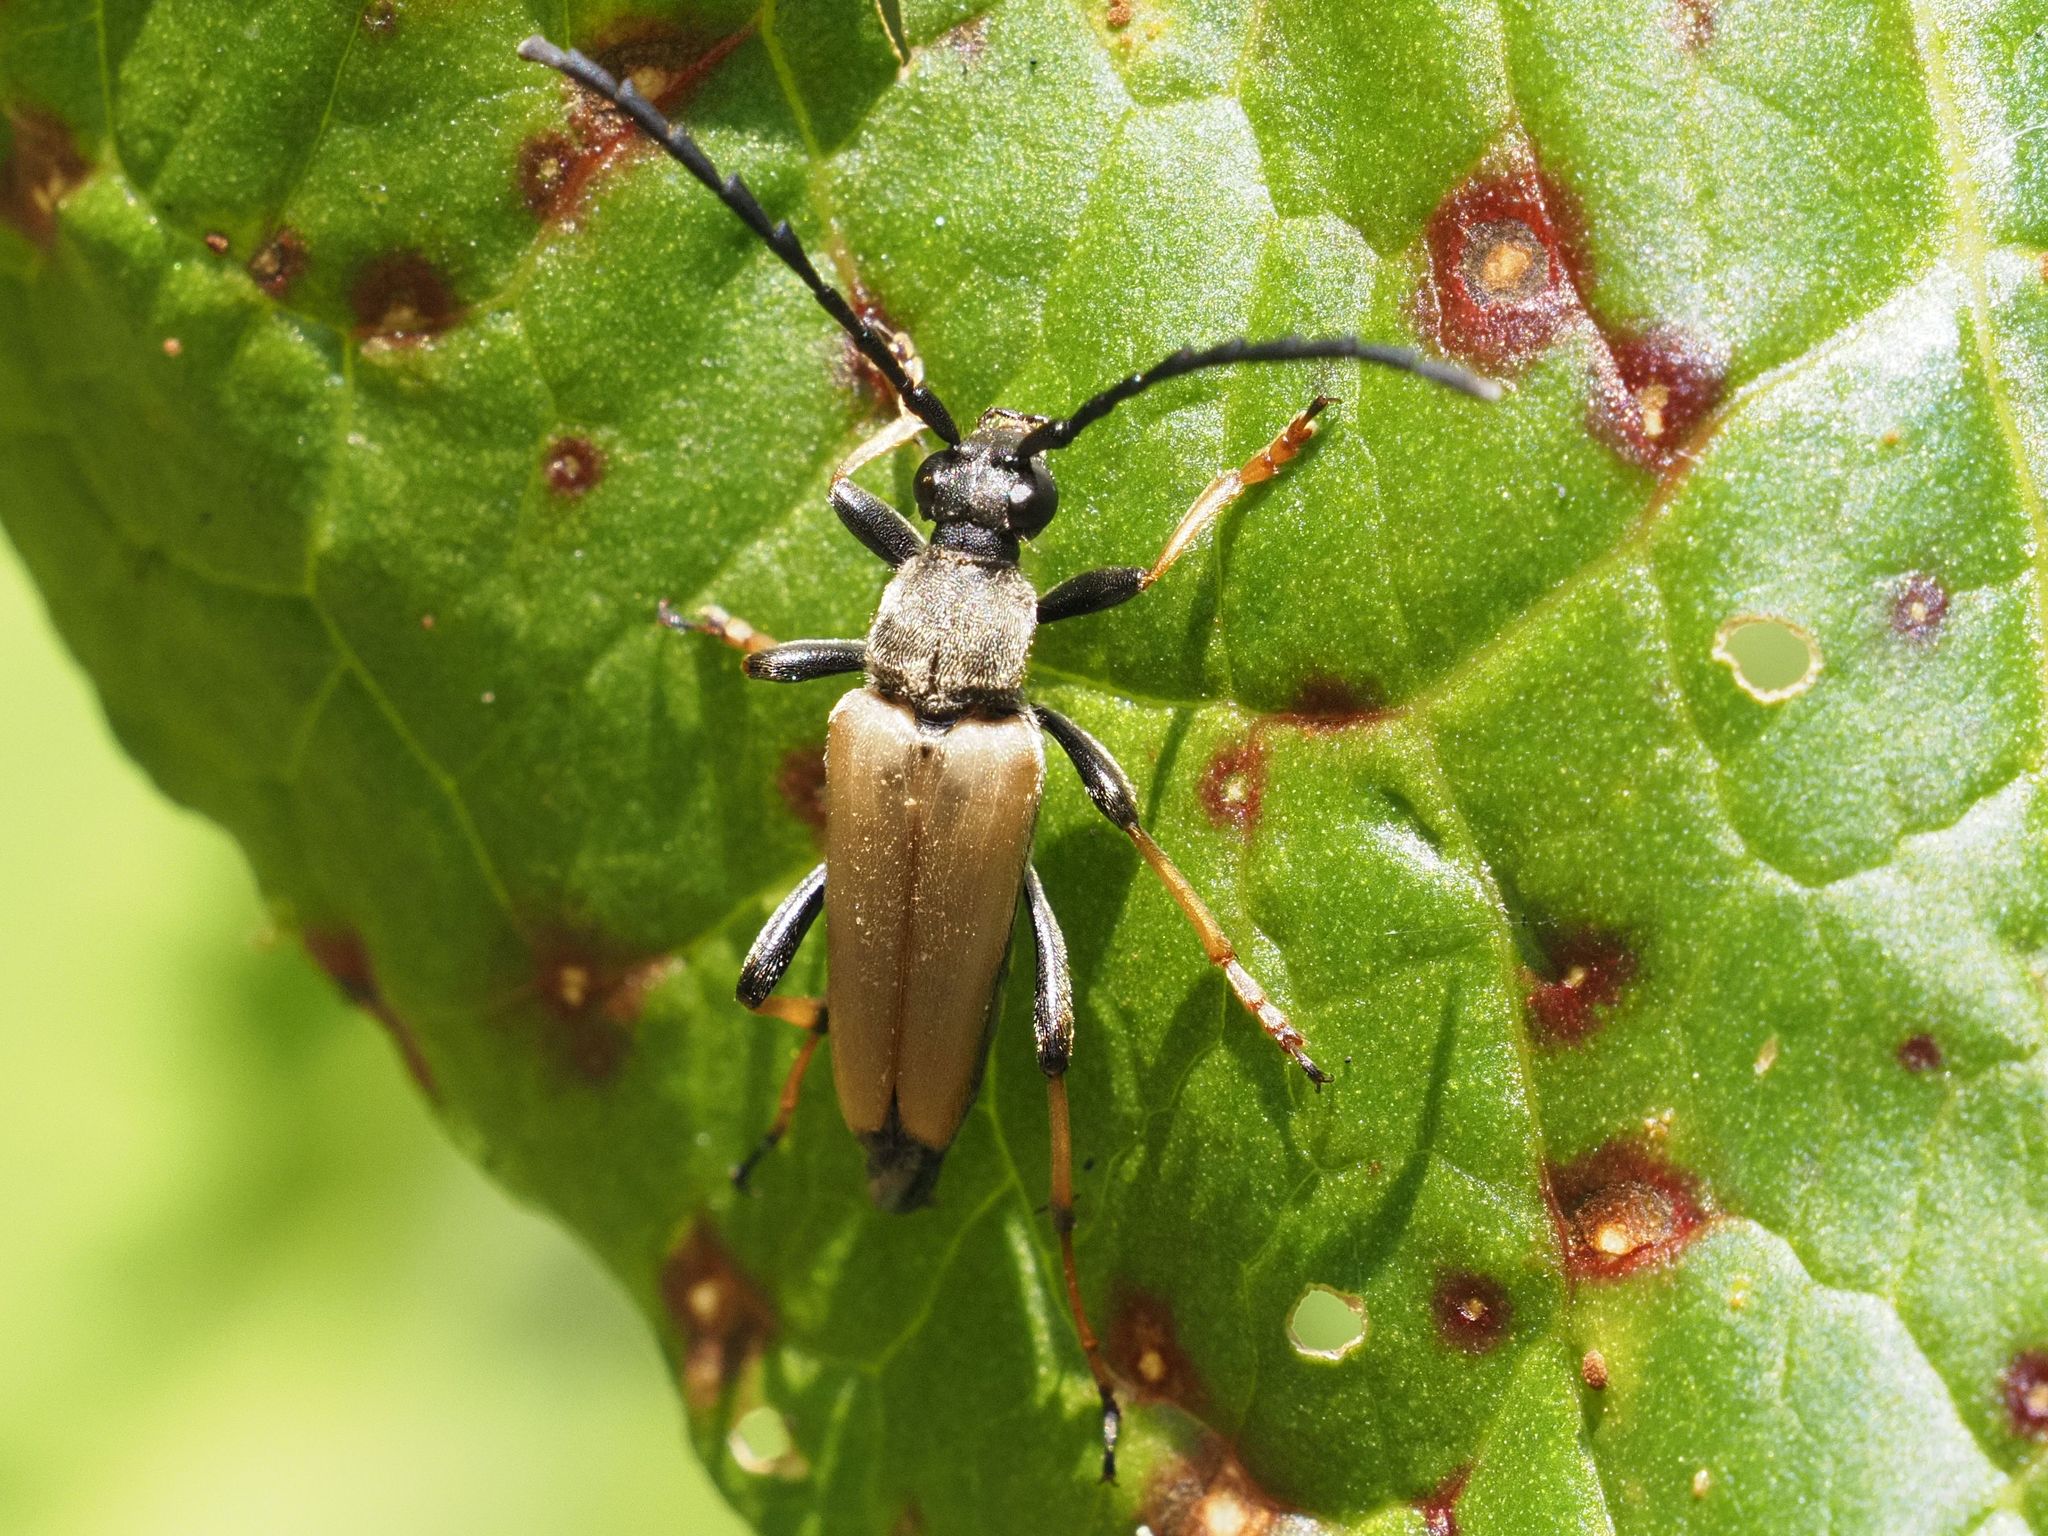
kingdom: Animalia
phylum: Arthropoda
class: Insecta
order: Coleoptera
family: Cerambycidae
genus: Stictoleptura
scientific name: Stictoleptura rubra
